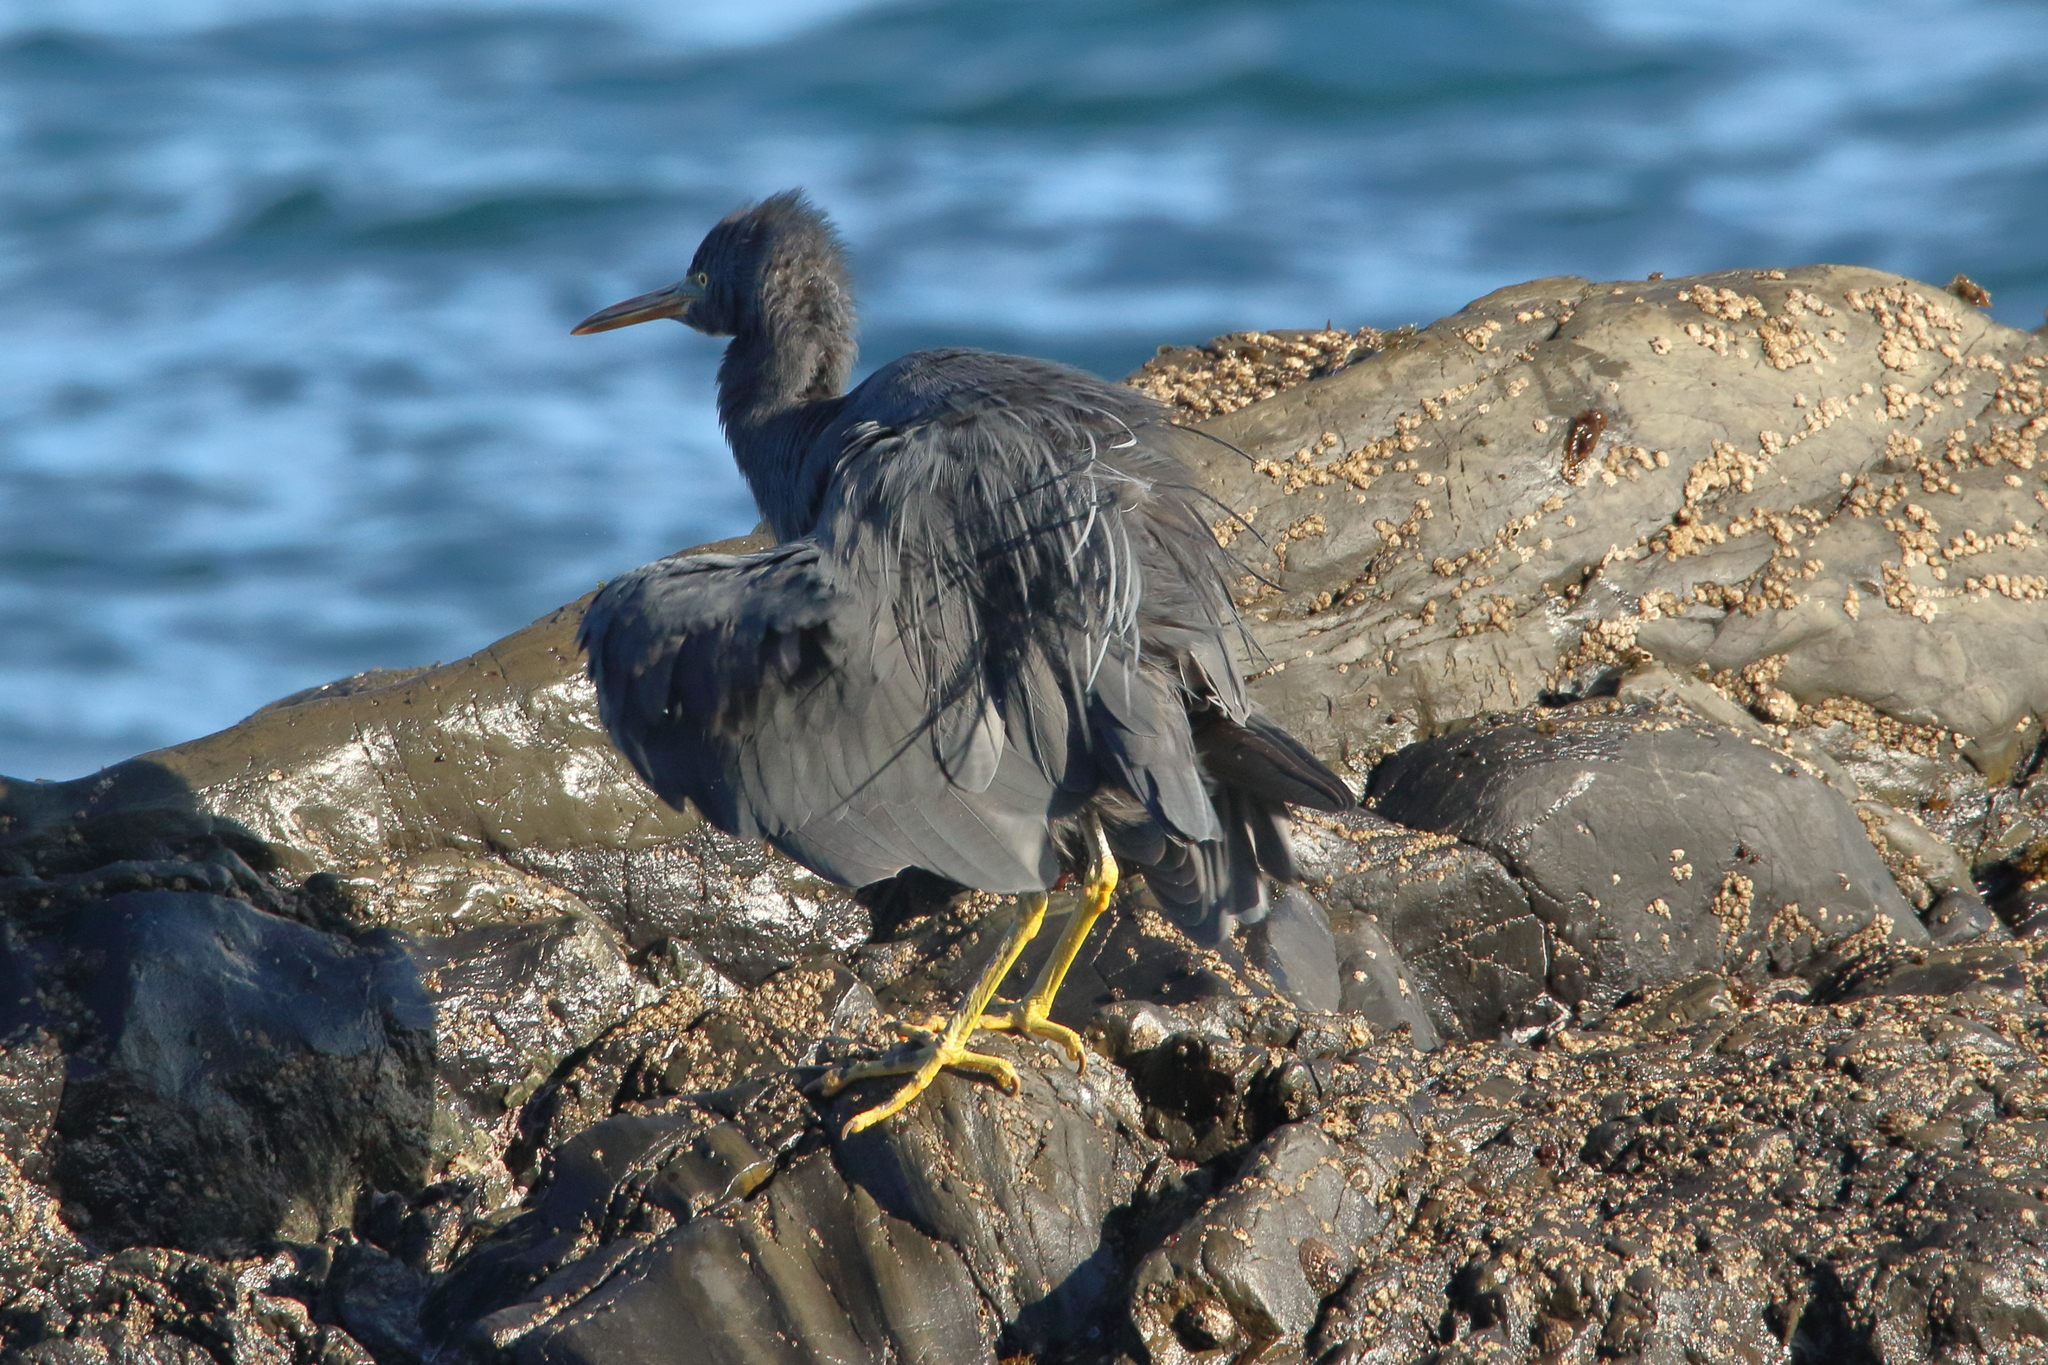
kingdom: Animalia
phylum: Chordata
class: Aves
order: Pelecaniformes
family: Ardeidae
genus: Egretta
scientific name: Egretta sacra
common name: Pacific reef heron
